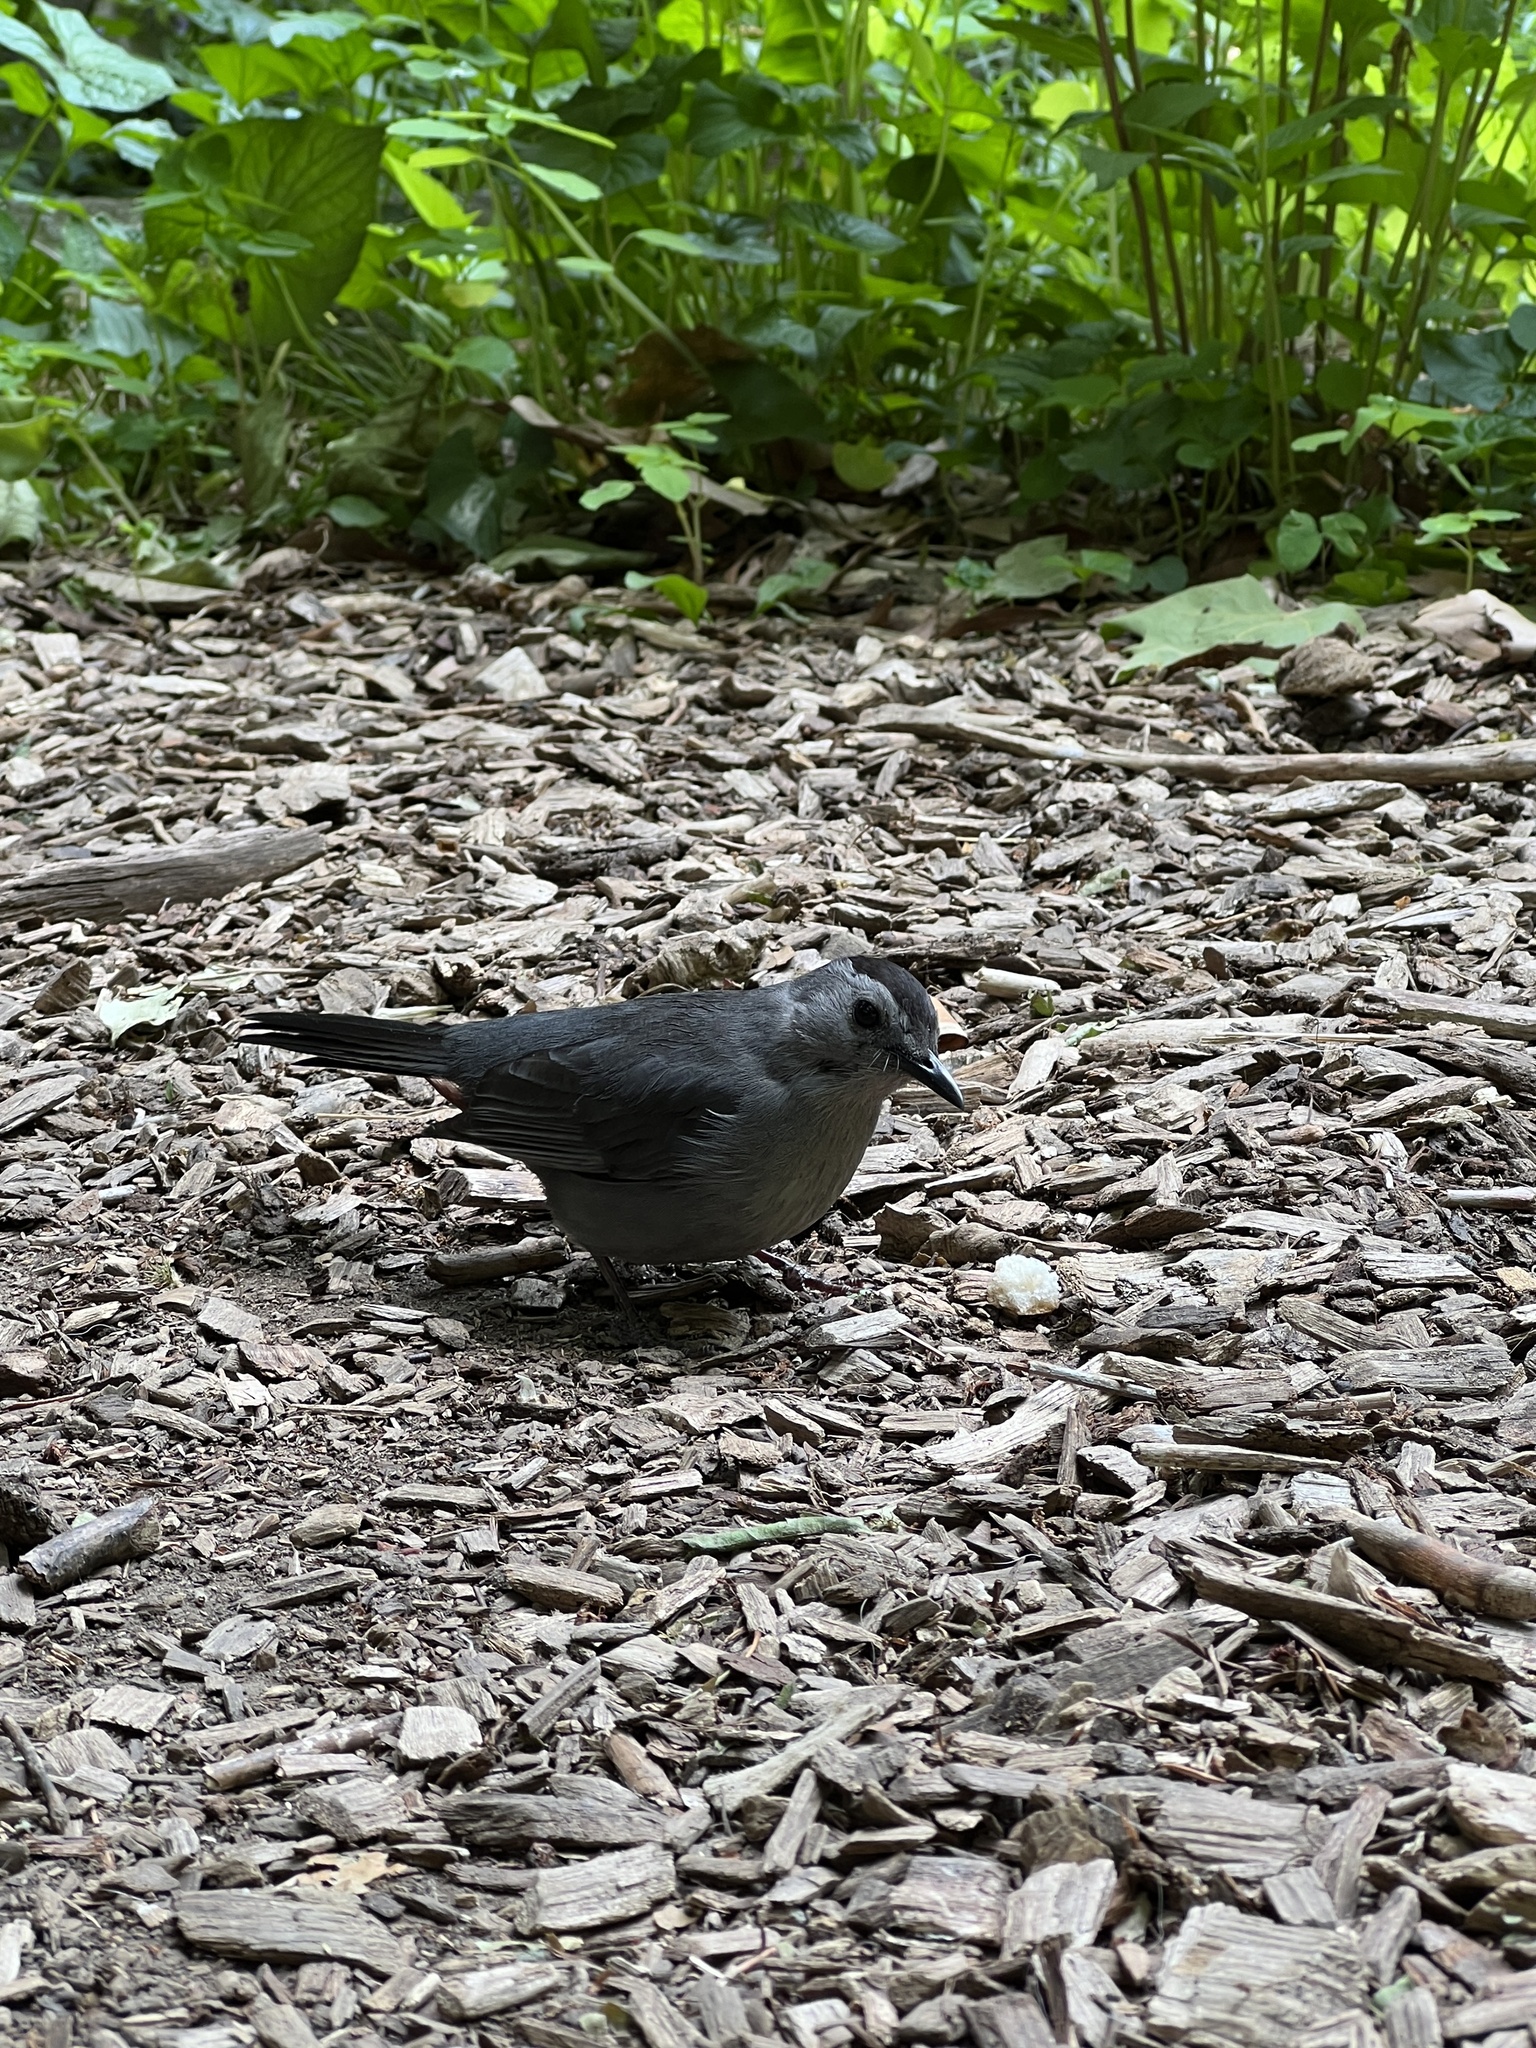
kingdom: Animalia
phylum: Chordata
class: Aves
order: Passeriformes
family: Mimidae
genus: Dumetella
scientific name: Dumetella carolinensis
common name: Gray catbird
